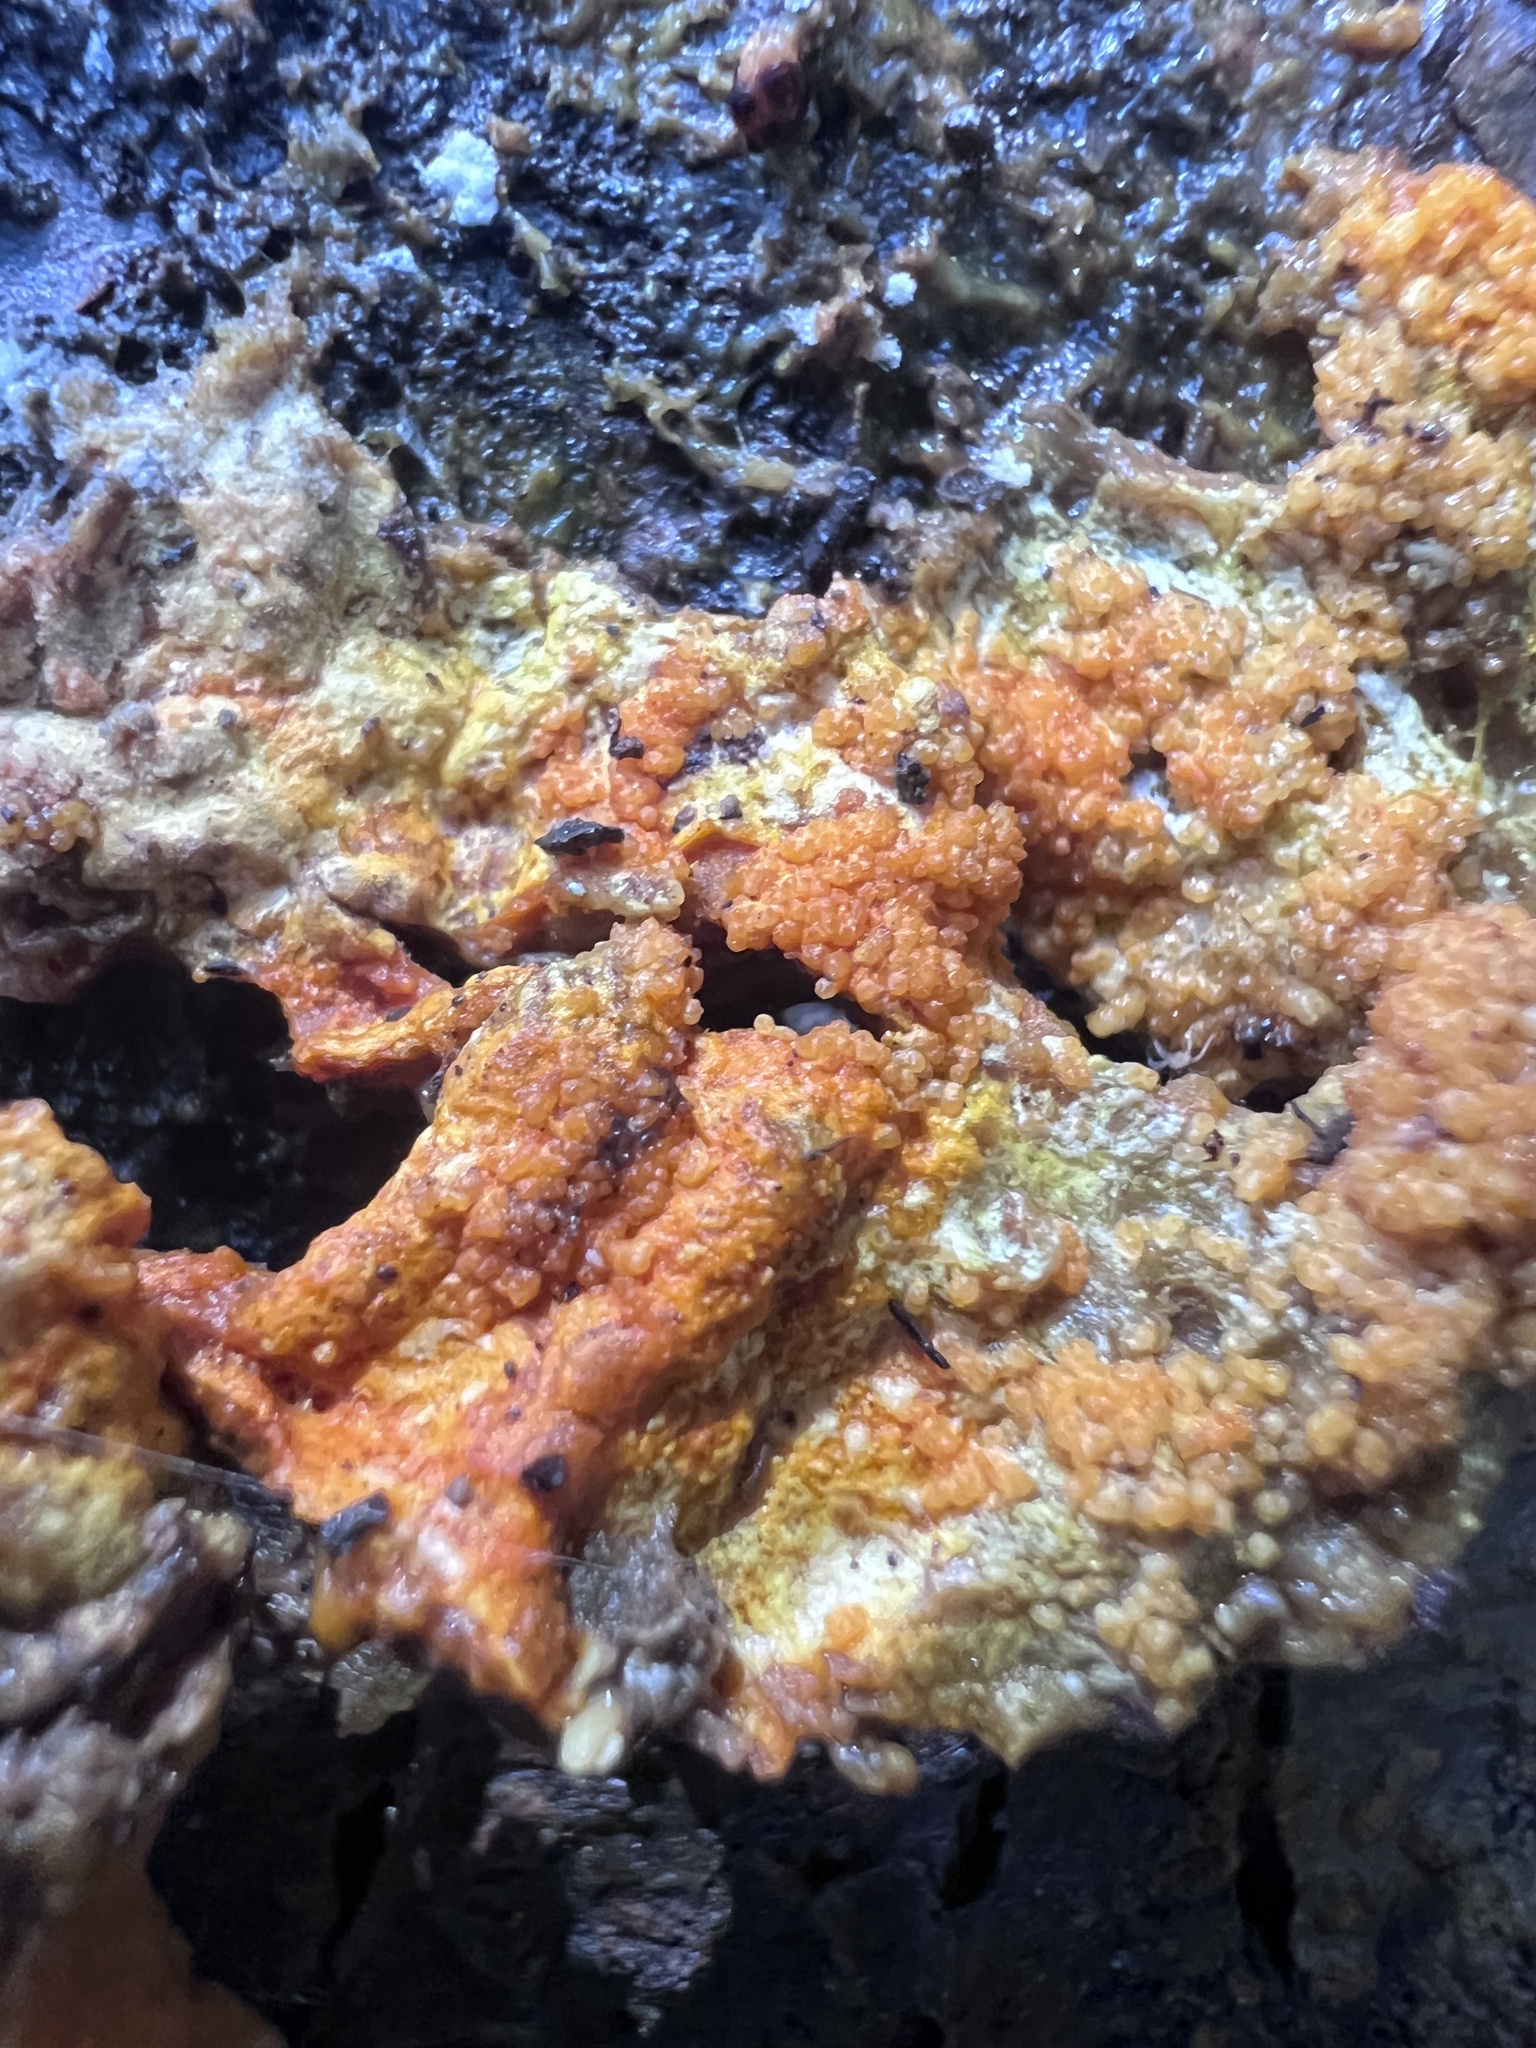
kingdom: Fungi
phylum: Ascomycota
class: Sordariomycetes
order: Hypocreales
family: Hypocreaceae
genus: Hypomyces
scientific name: Hypomyces aurantius
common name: Orange polypore mould
